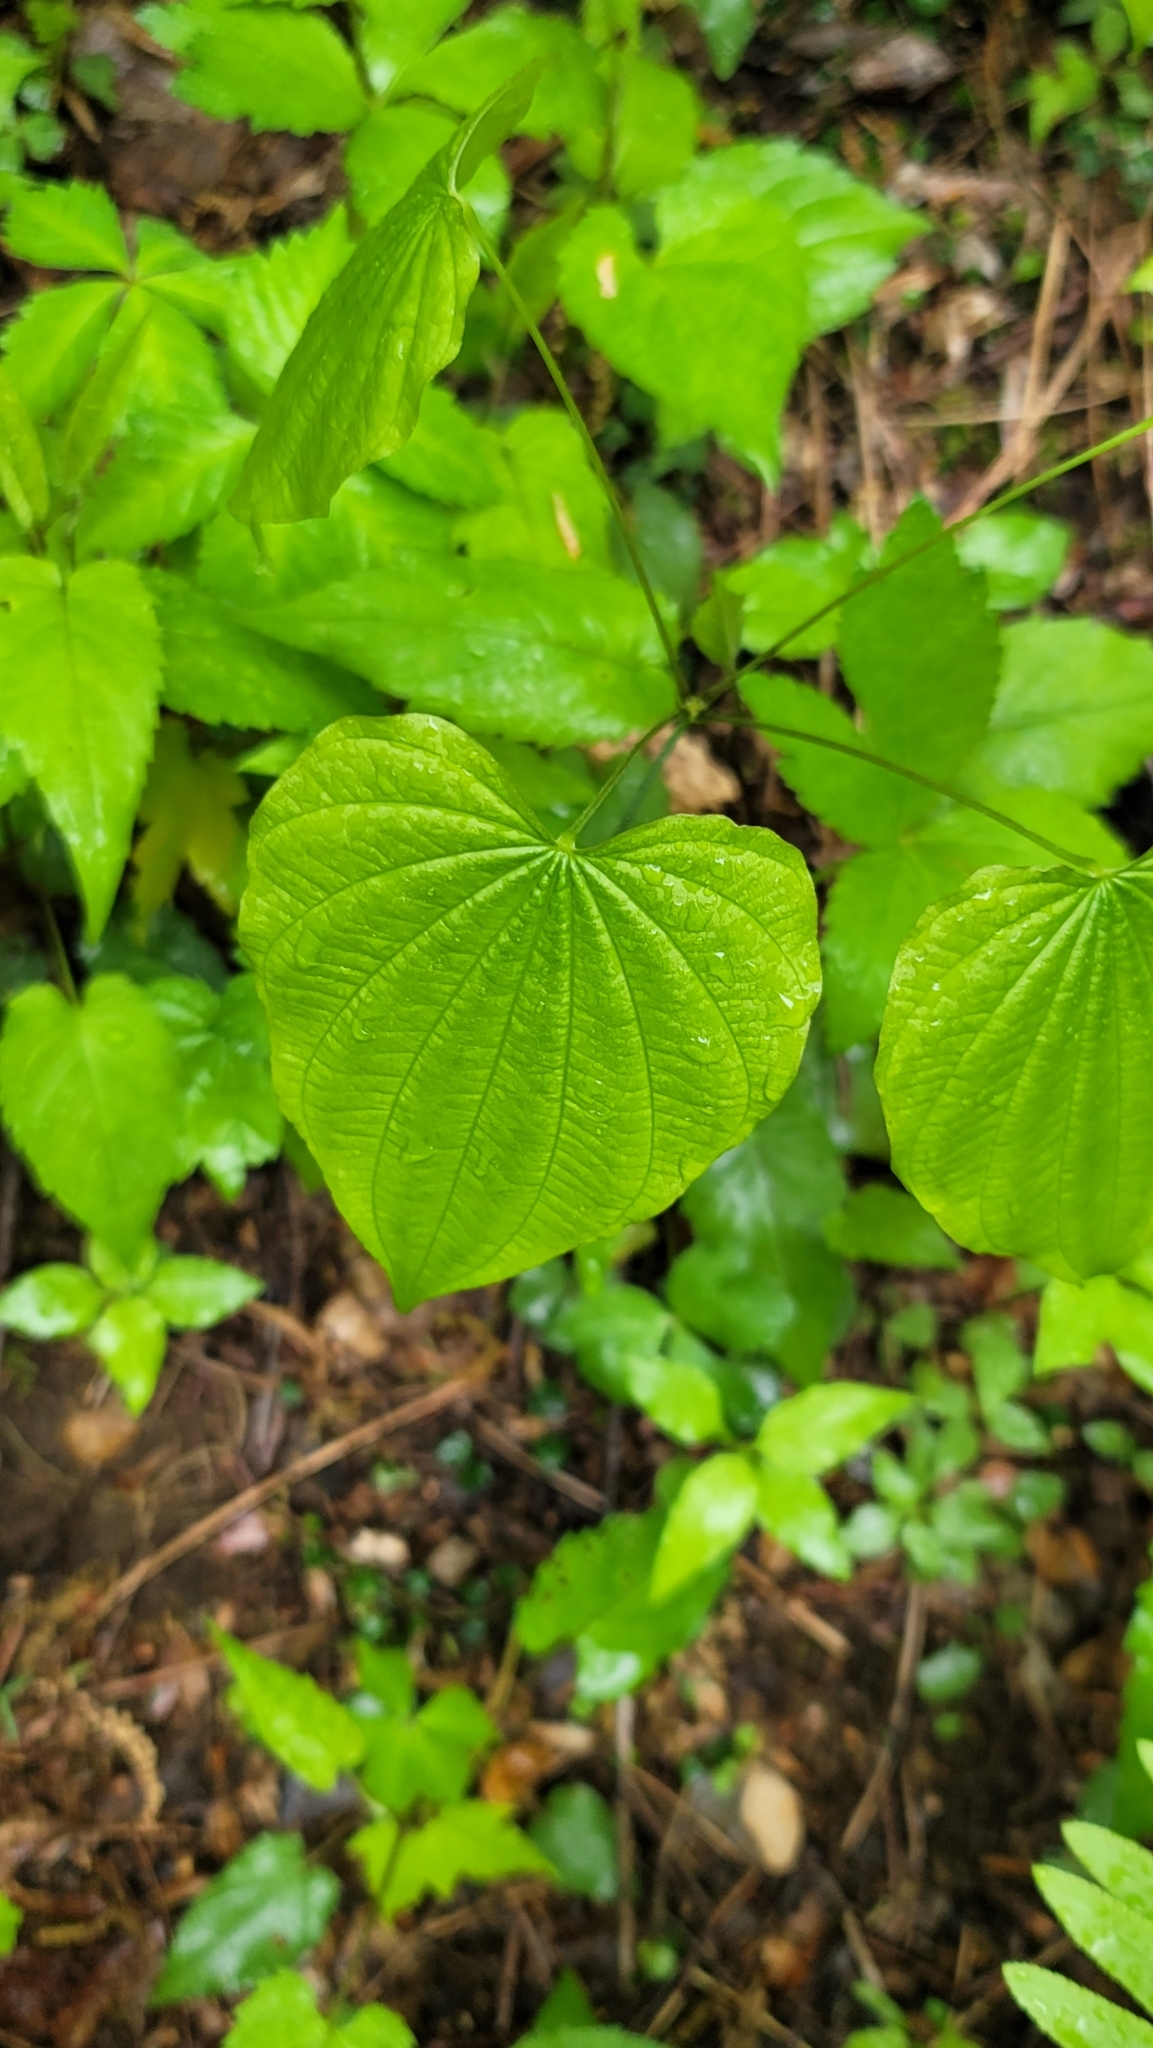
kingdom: Plantae
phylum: Tracheophyta
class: Liliopsida
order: Dioscoreales
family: Dioscoreaceae
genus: Dioscorea
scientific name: Dioscorea villosa
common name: Wild yam
